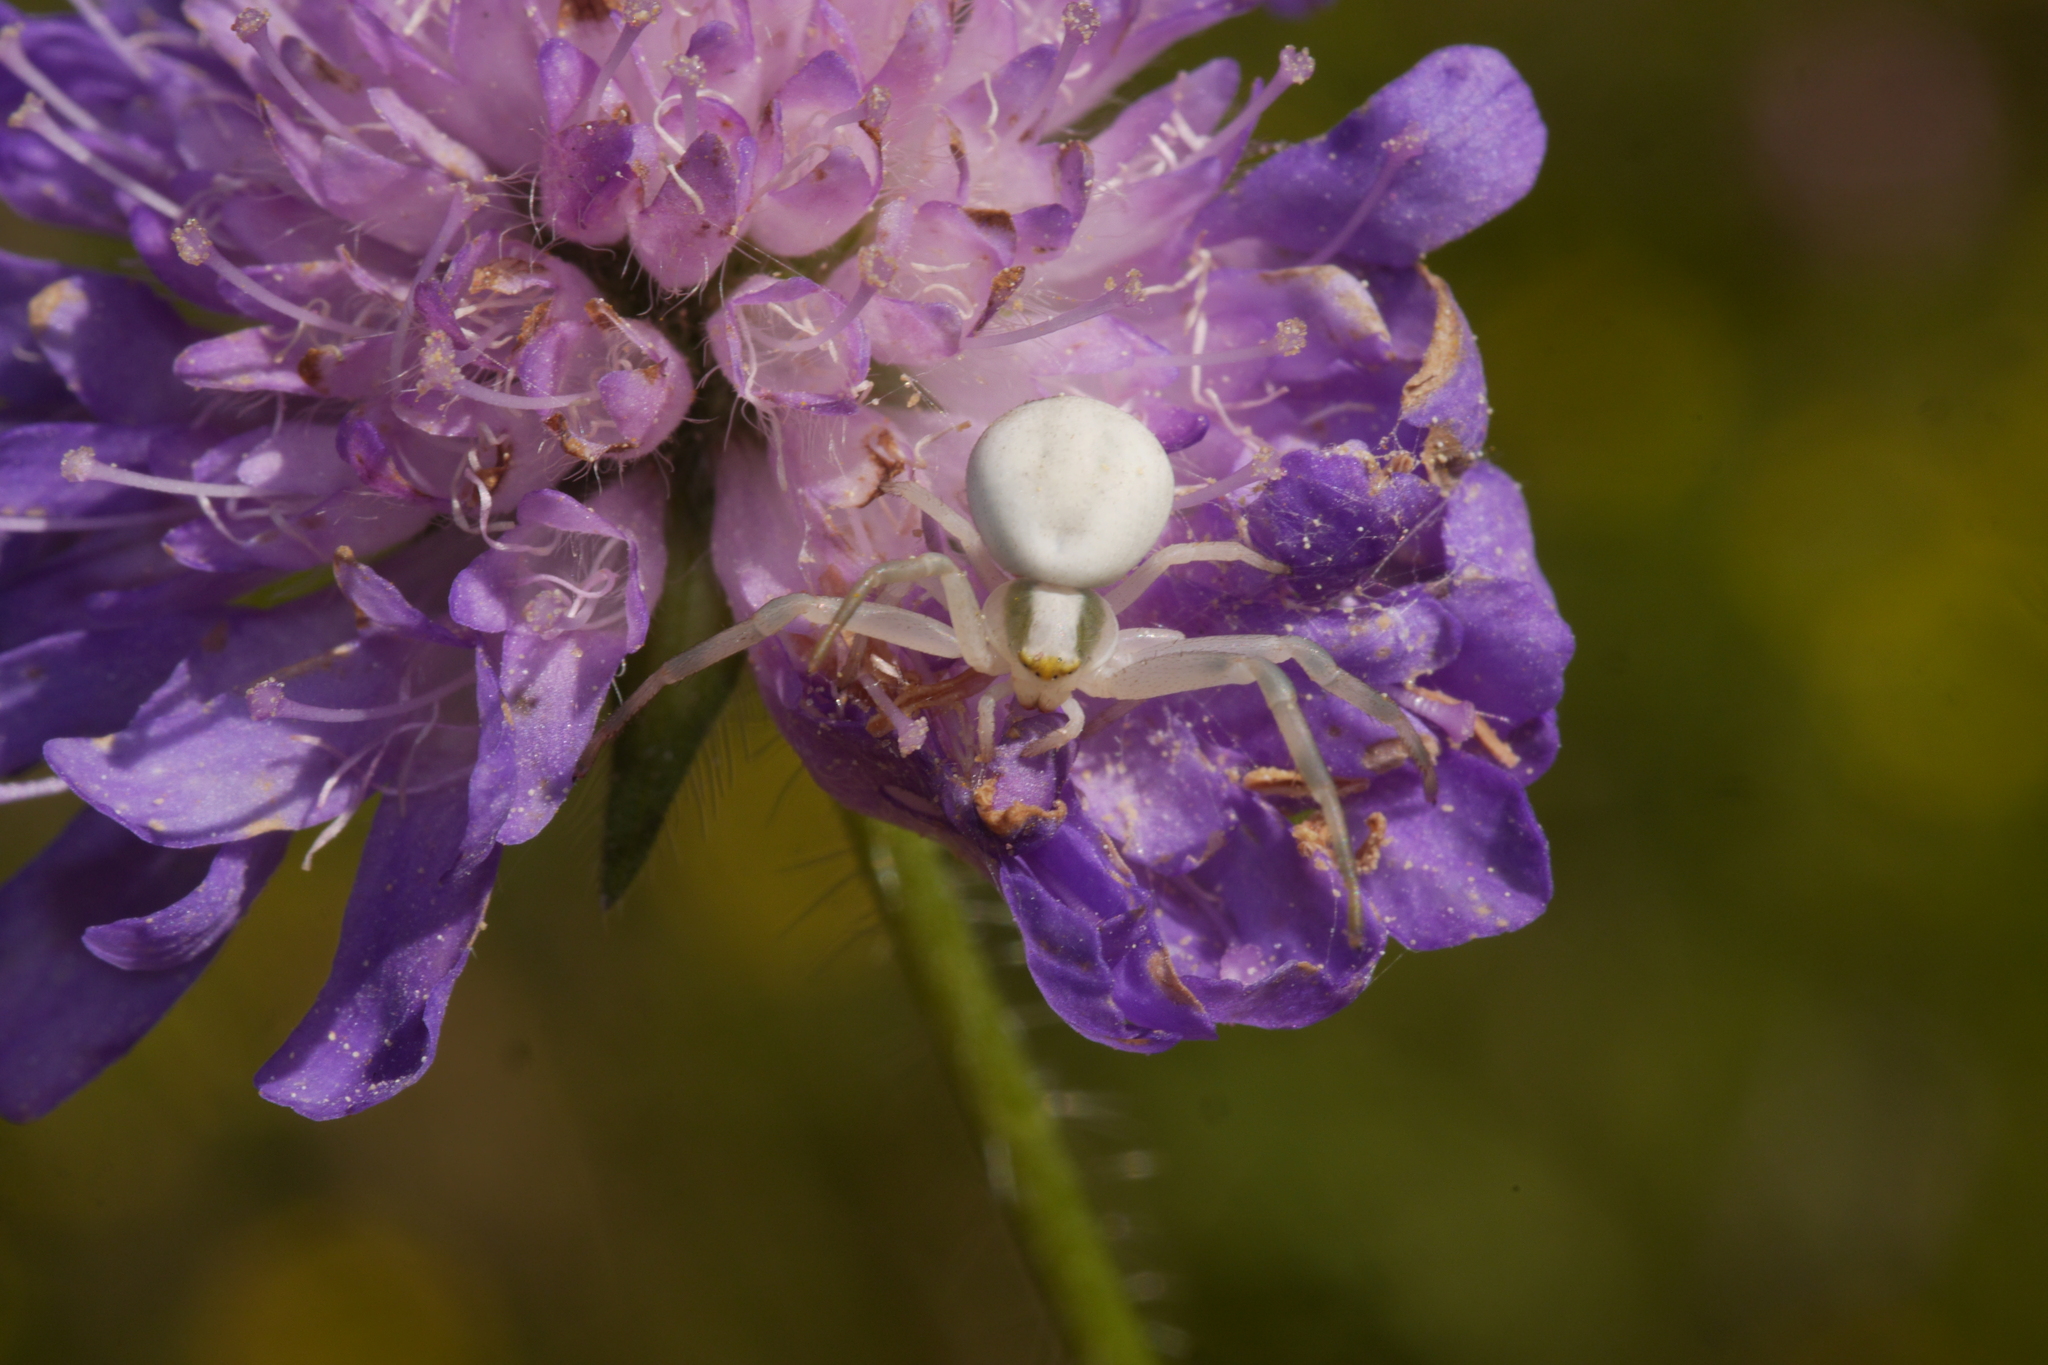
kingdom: Animalia
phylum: Arthropoda
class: Arachnida
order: Araneae
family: Thomisidae
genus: Misumena
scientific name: Misumena vatia
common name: Goldenrod crab spider
